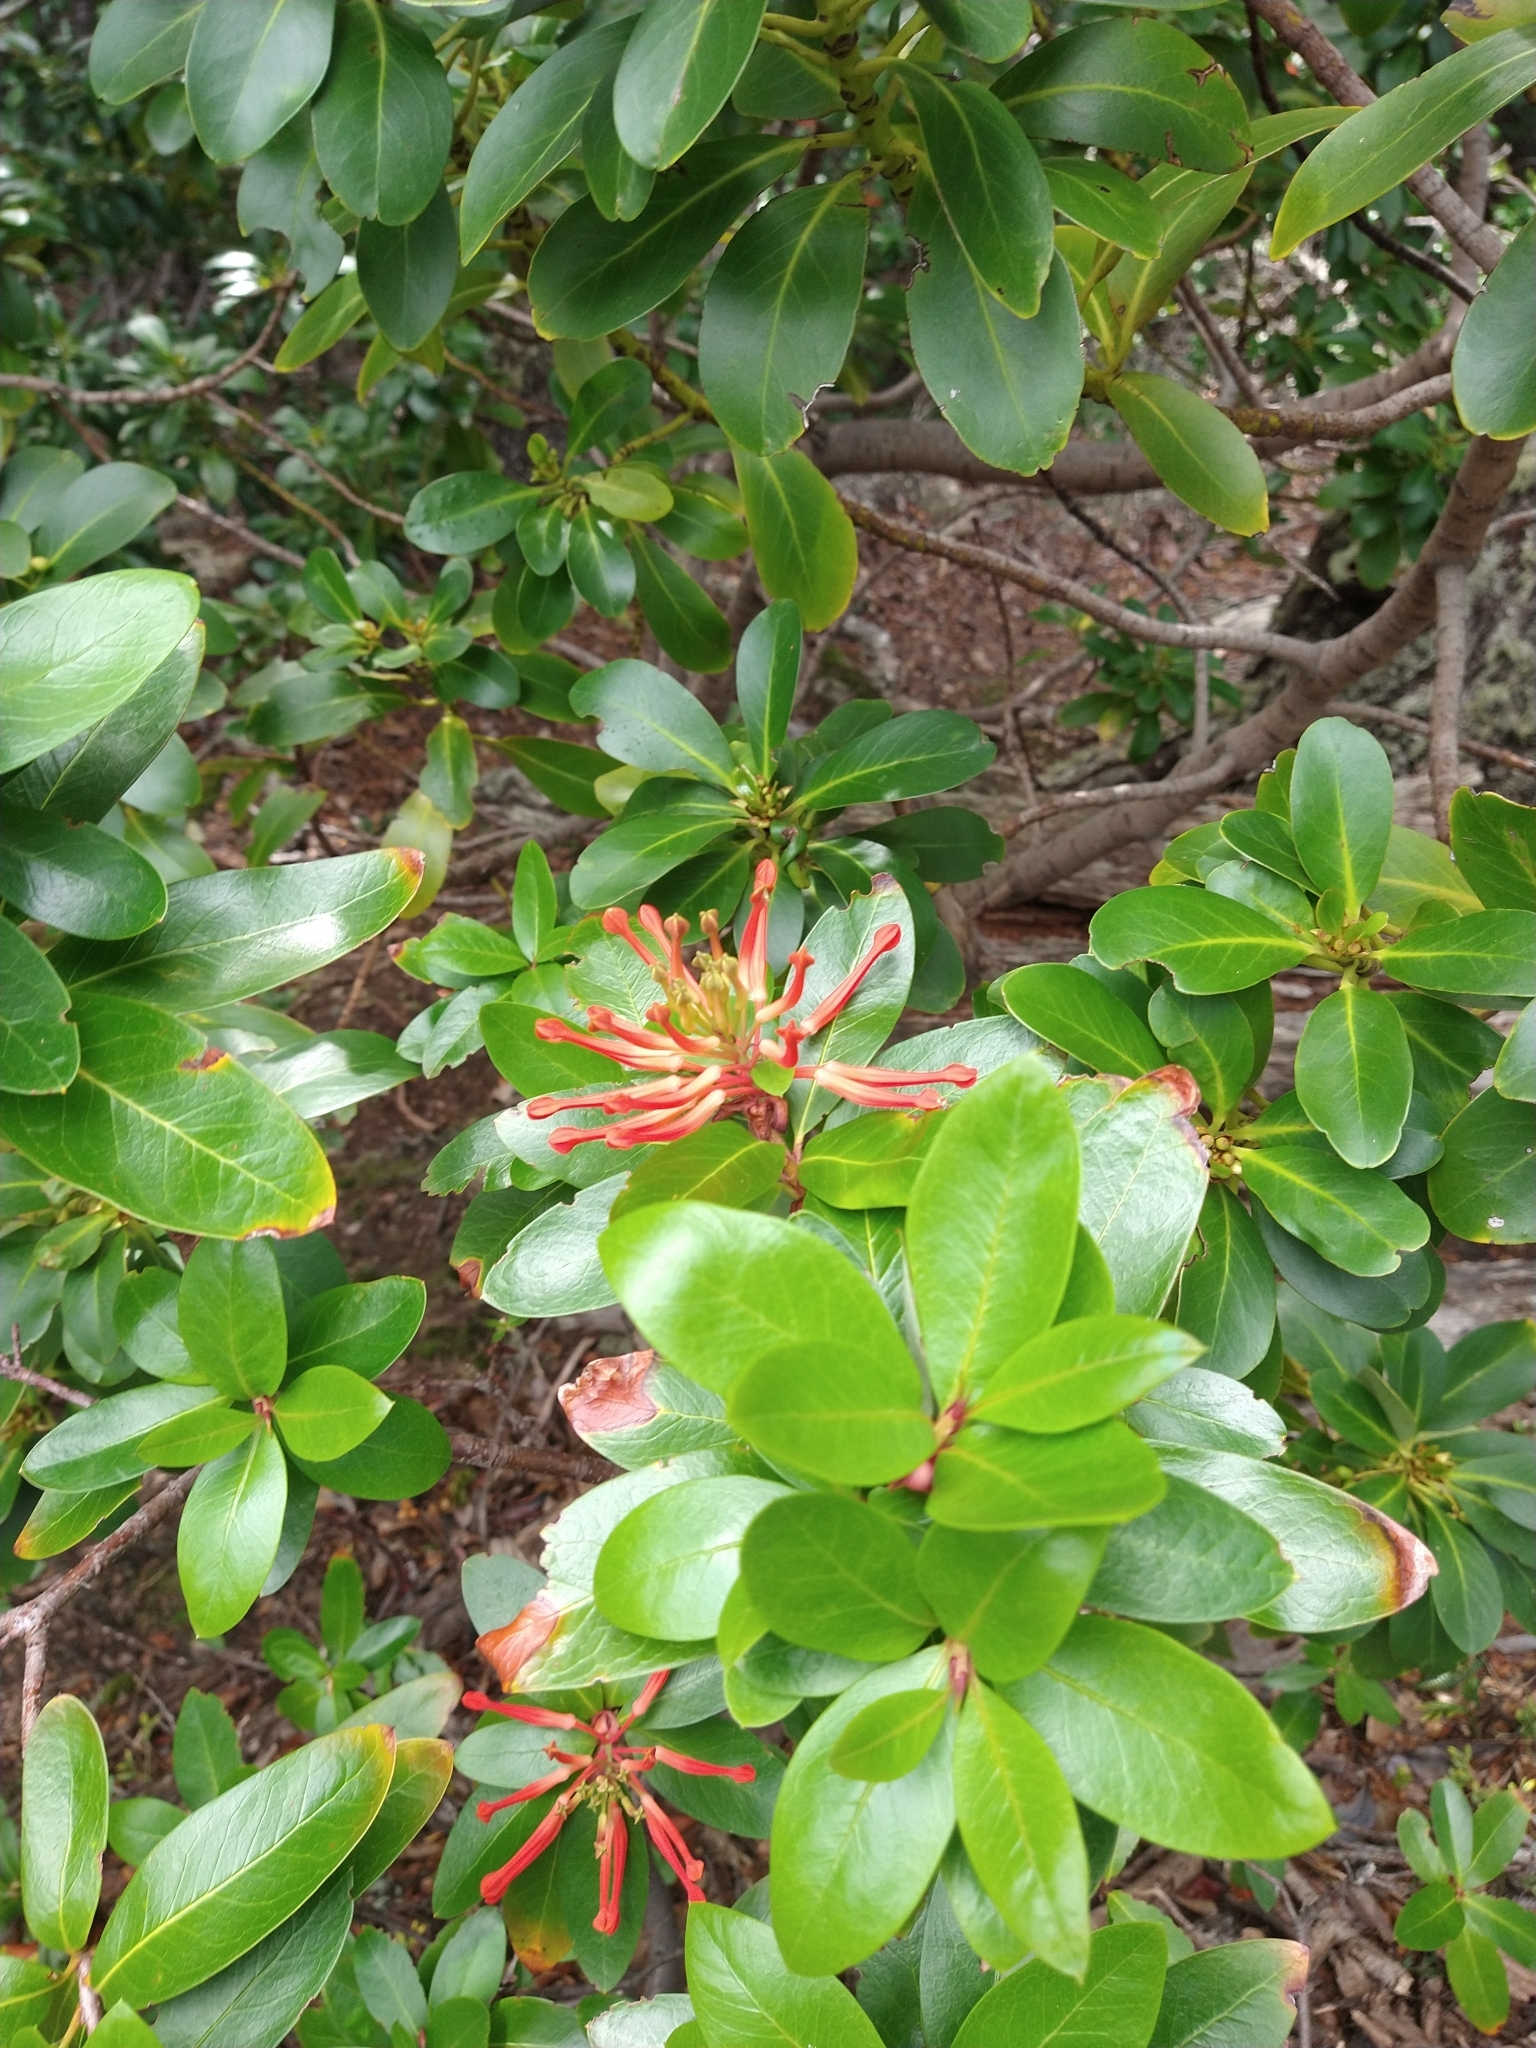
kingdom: Plantae
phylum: Tracheophyta
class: Magnoliopsida
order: Proteales
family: Proteaceae
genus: Embothrium
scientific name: Embothrium coccineum
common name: Chilean firebush
